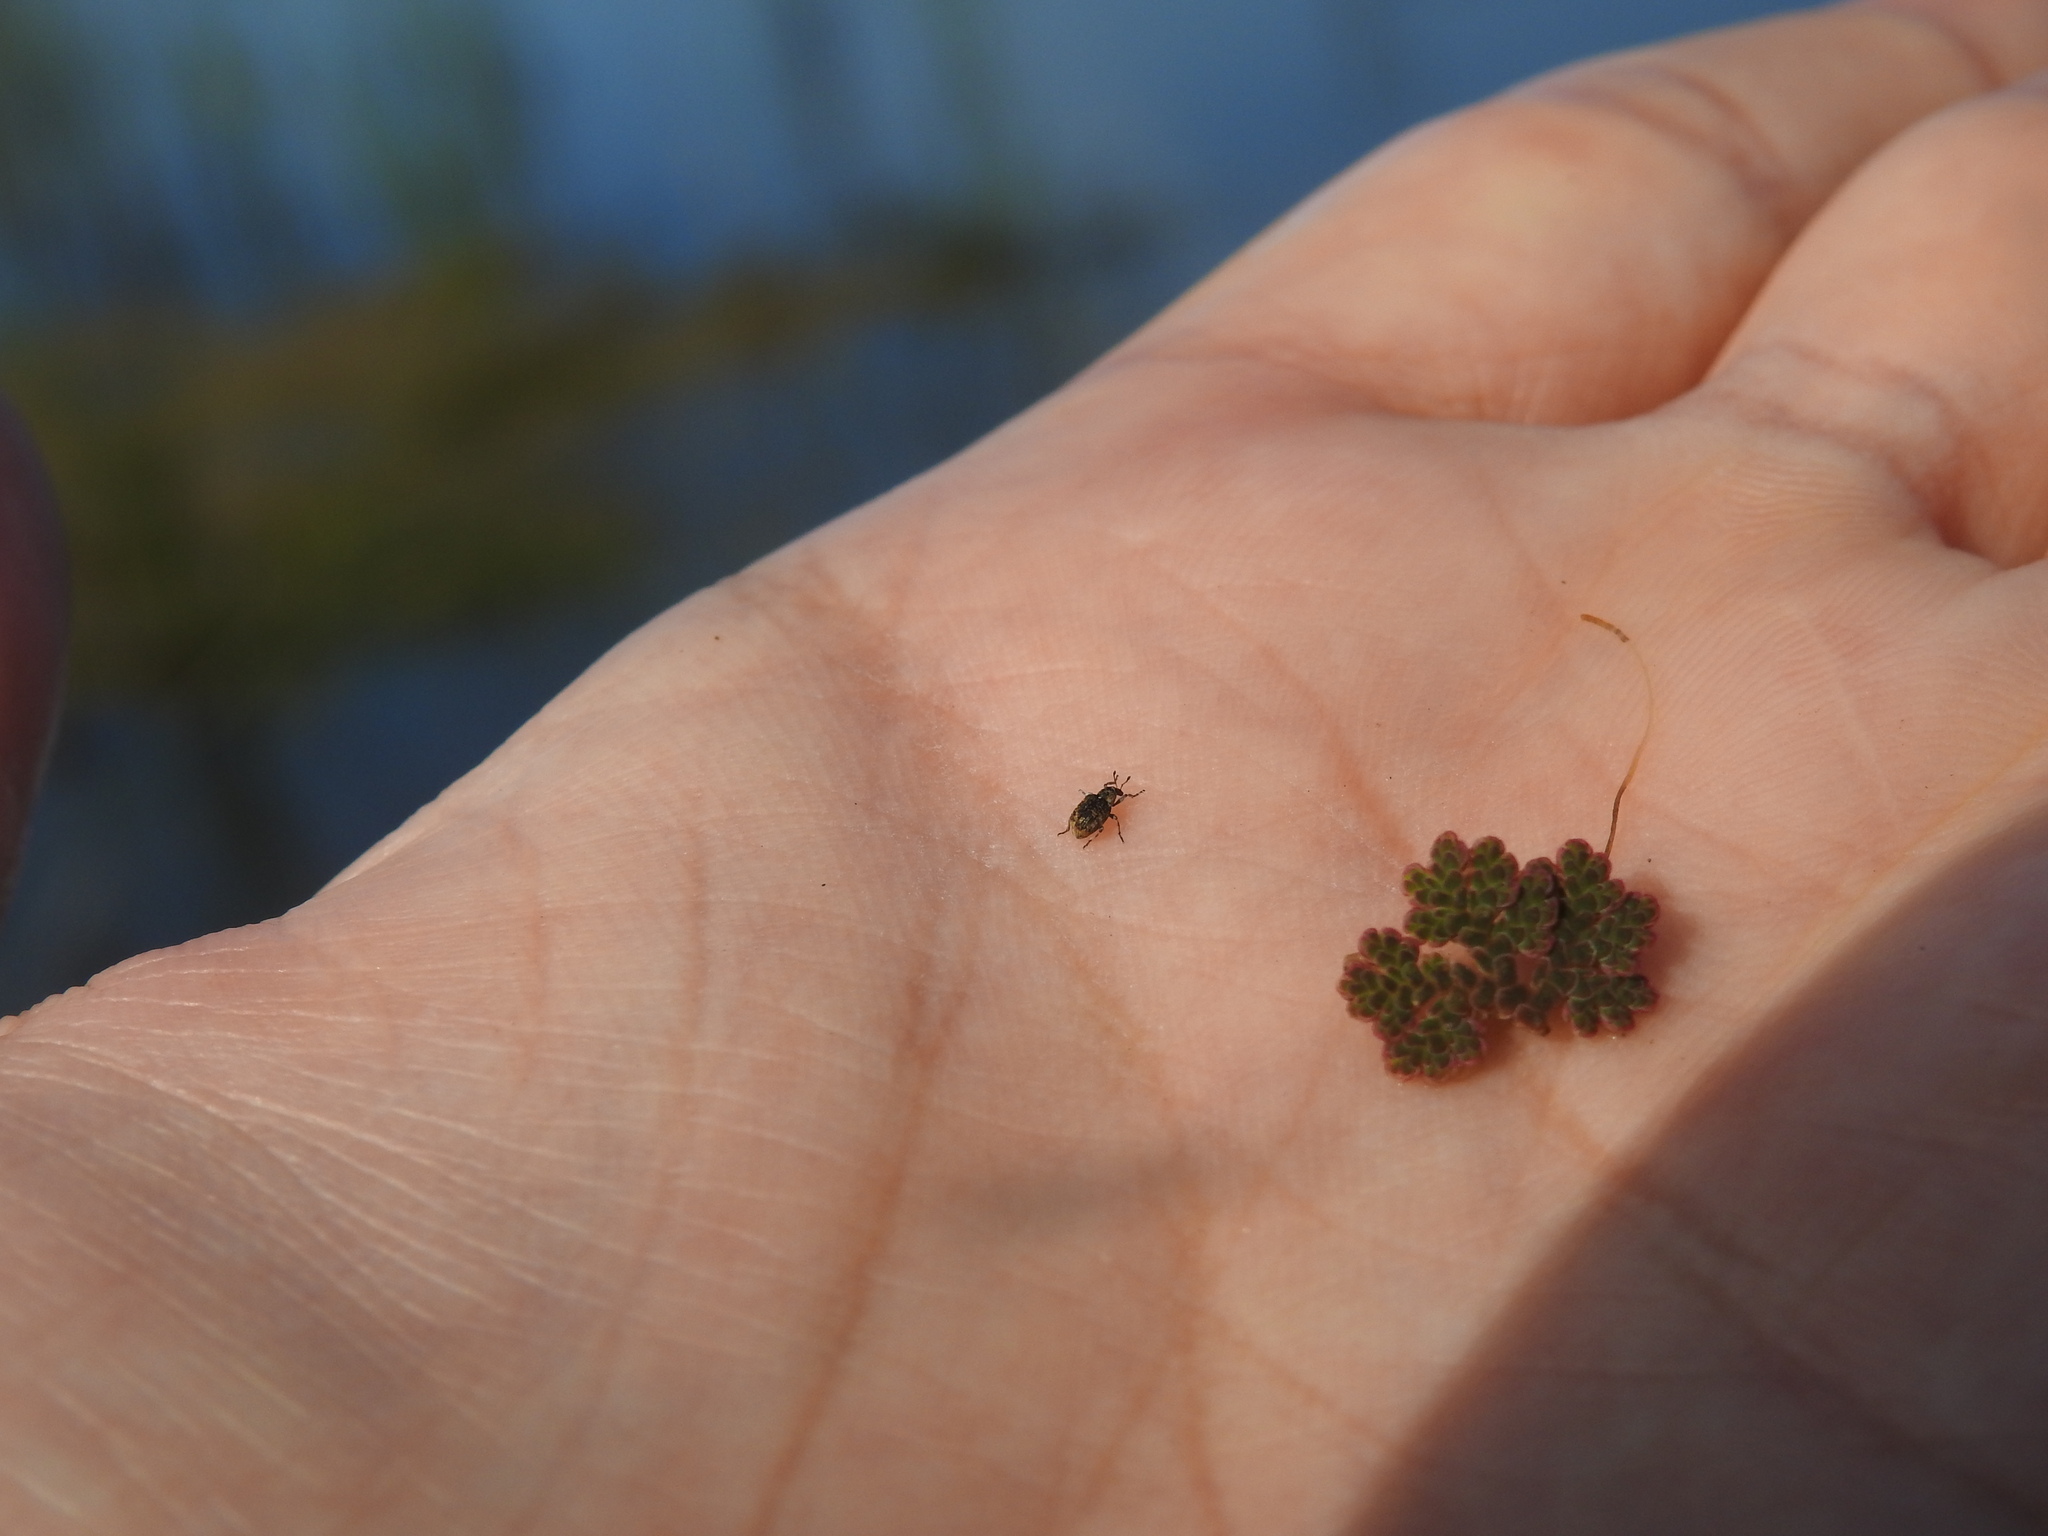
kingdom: Animalia
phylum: Arthropoda
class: Insecta
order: Coleoptera
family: Brachyceridae
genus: Stenopelmus
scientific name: Stenopelmus rufinasus
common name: Azolla weevil
